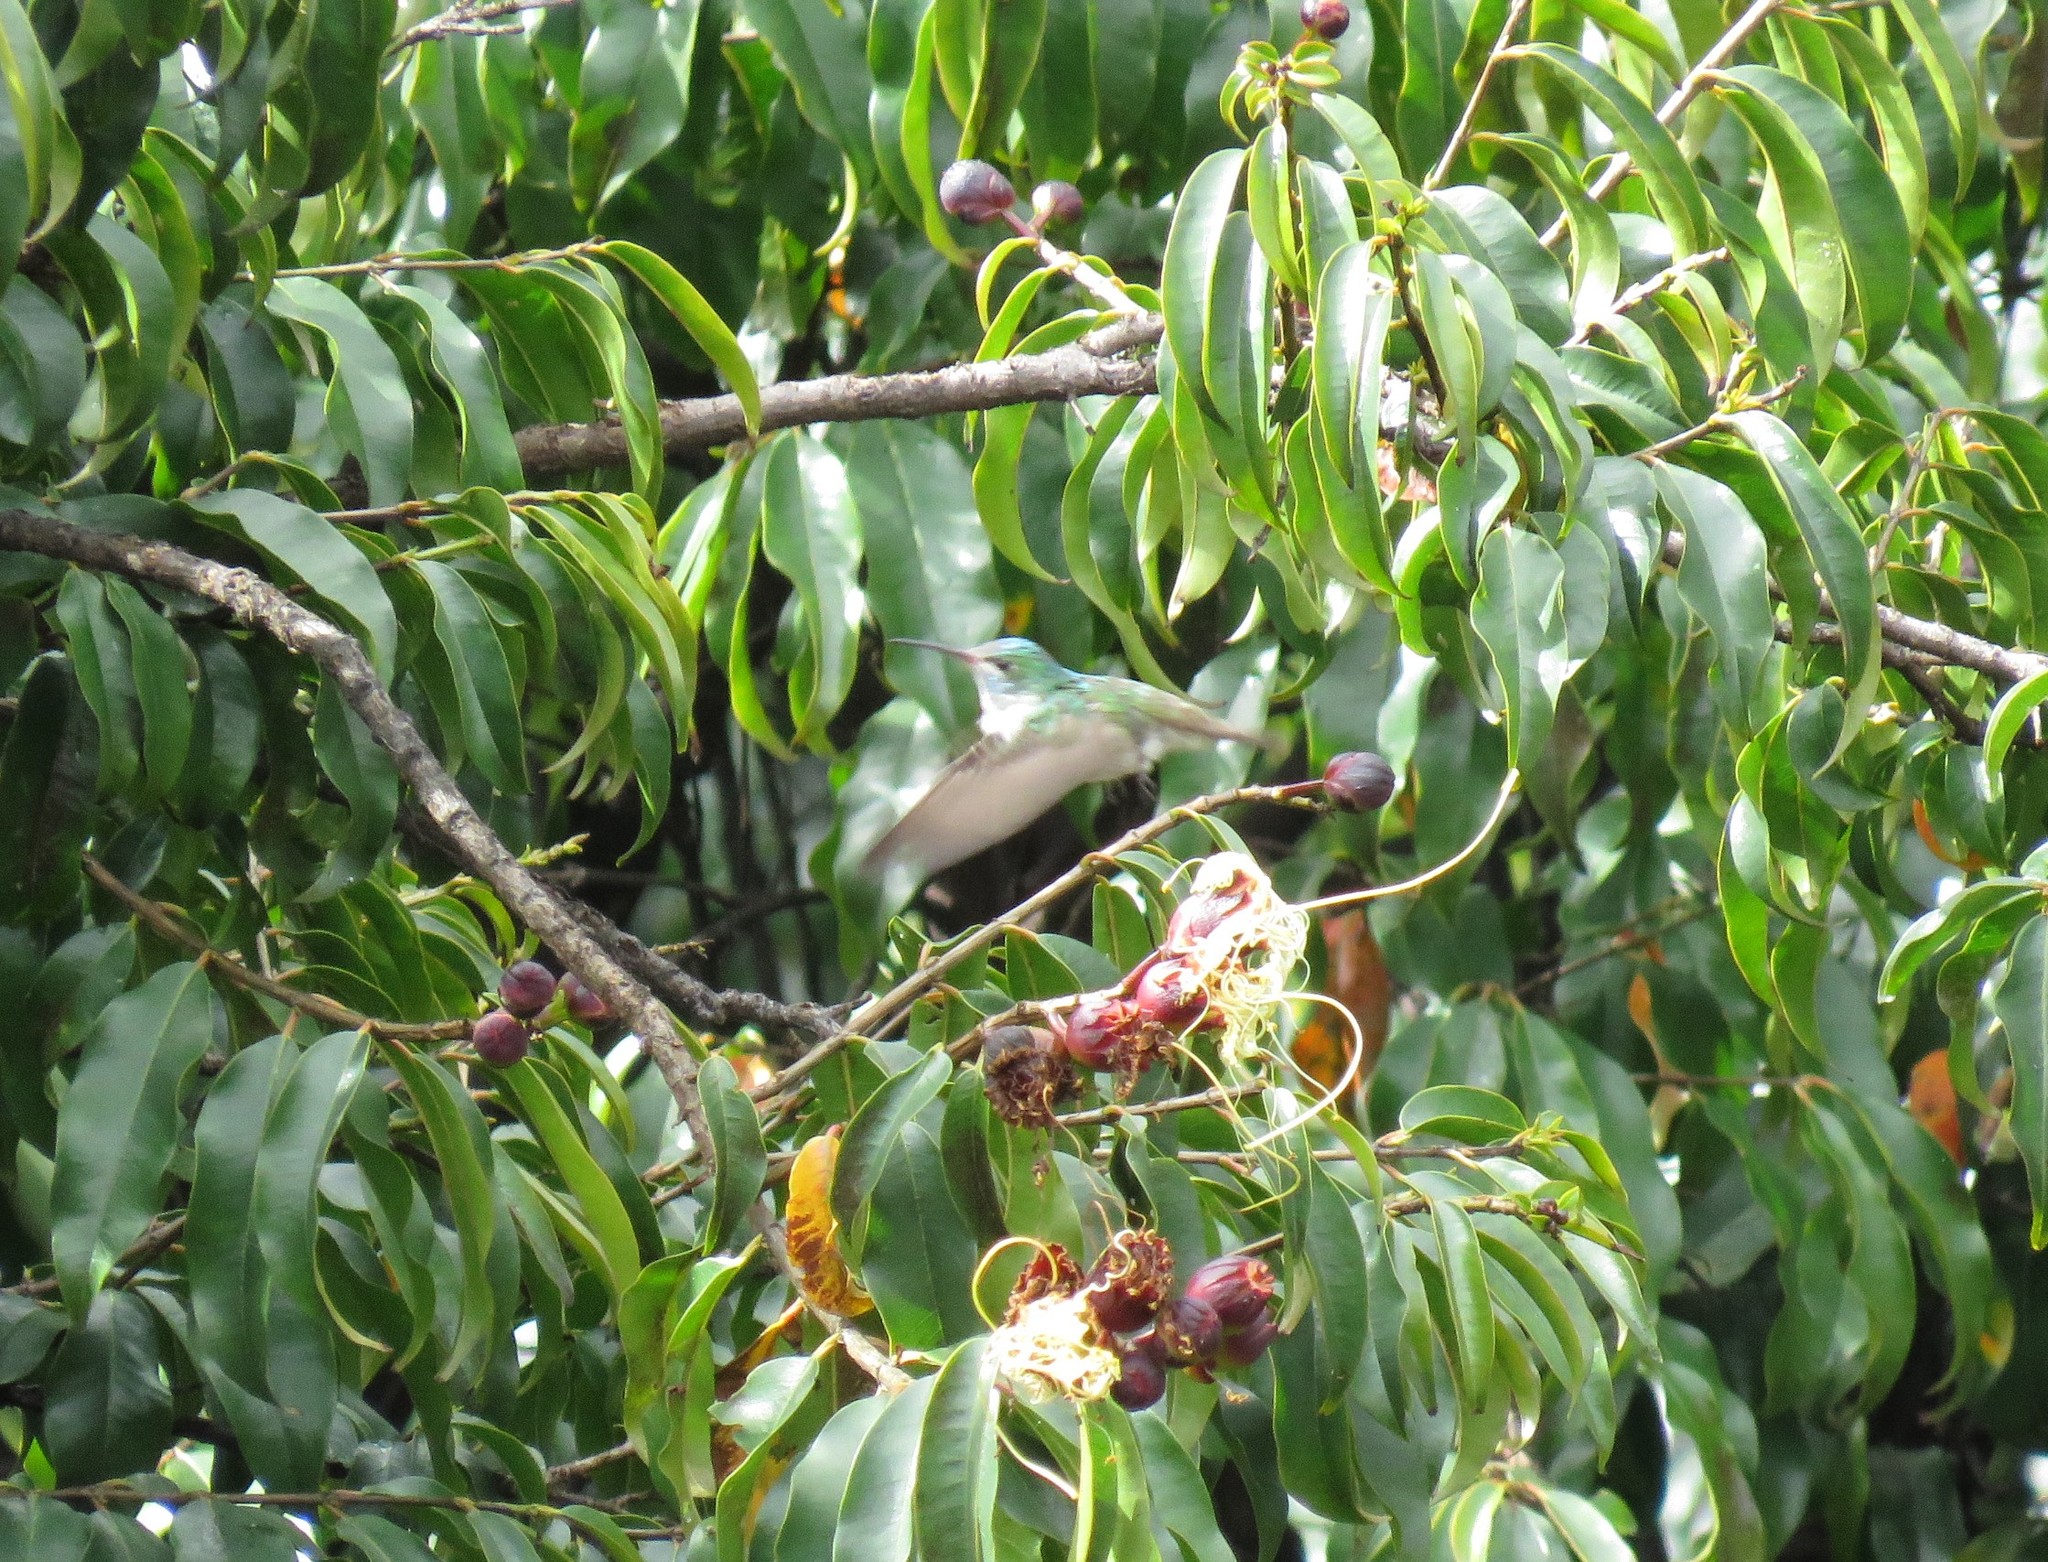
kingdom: Animalia
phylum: Chordata
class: Aves
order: Apodiformes
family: Trochilidae
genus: Uranomitra
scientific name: Uranomitra franciae
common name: Andean emerald
